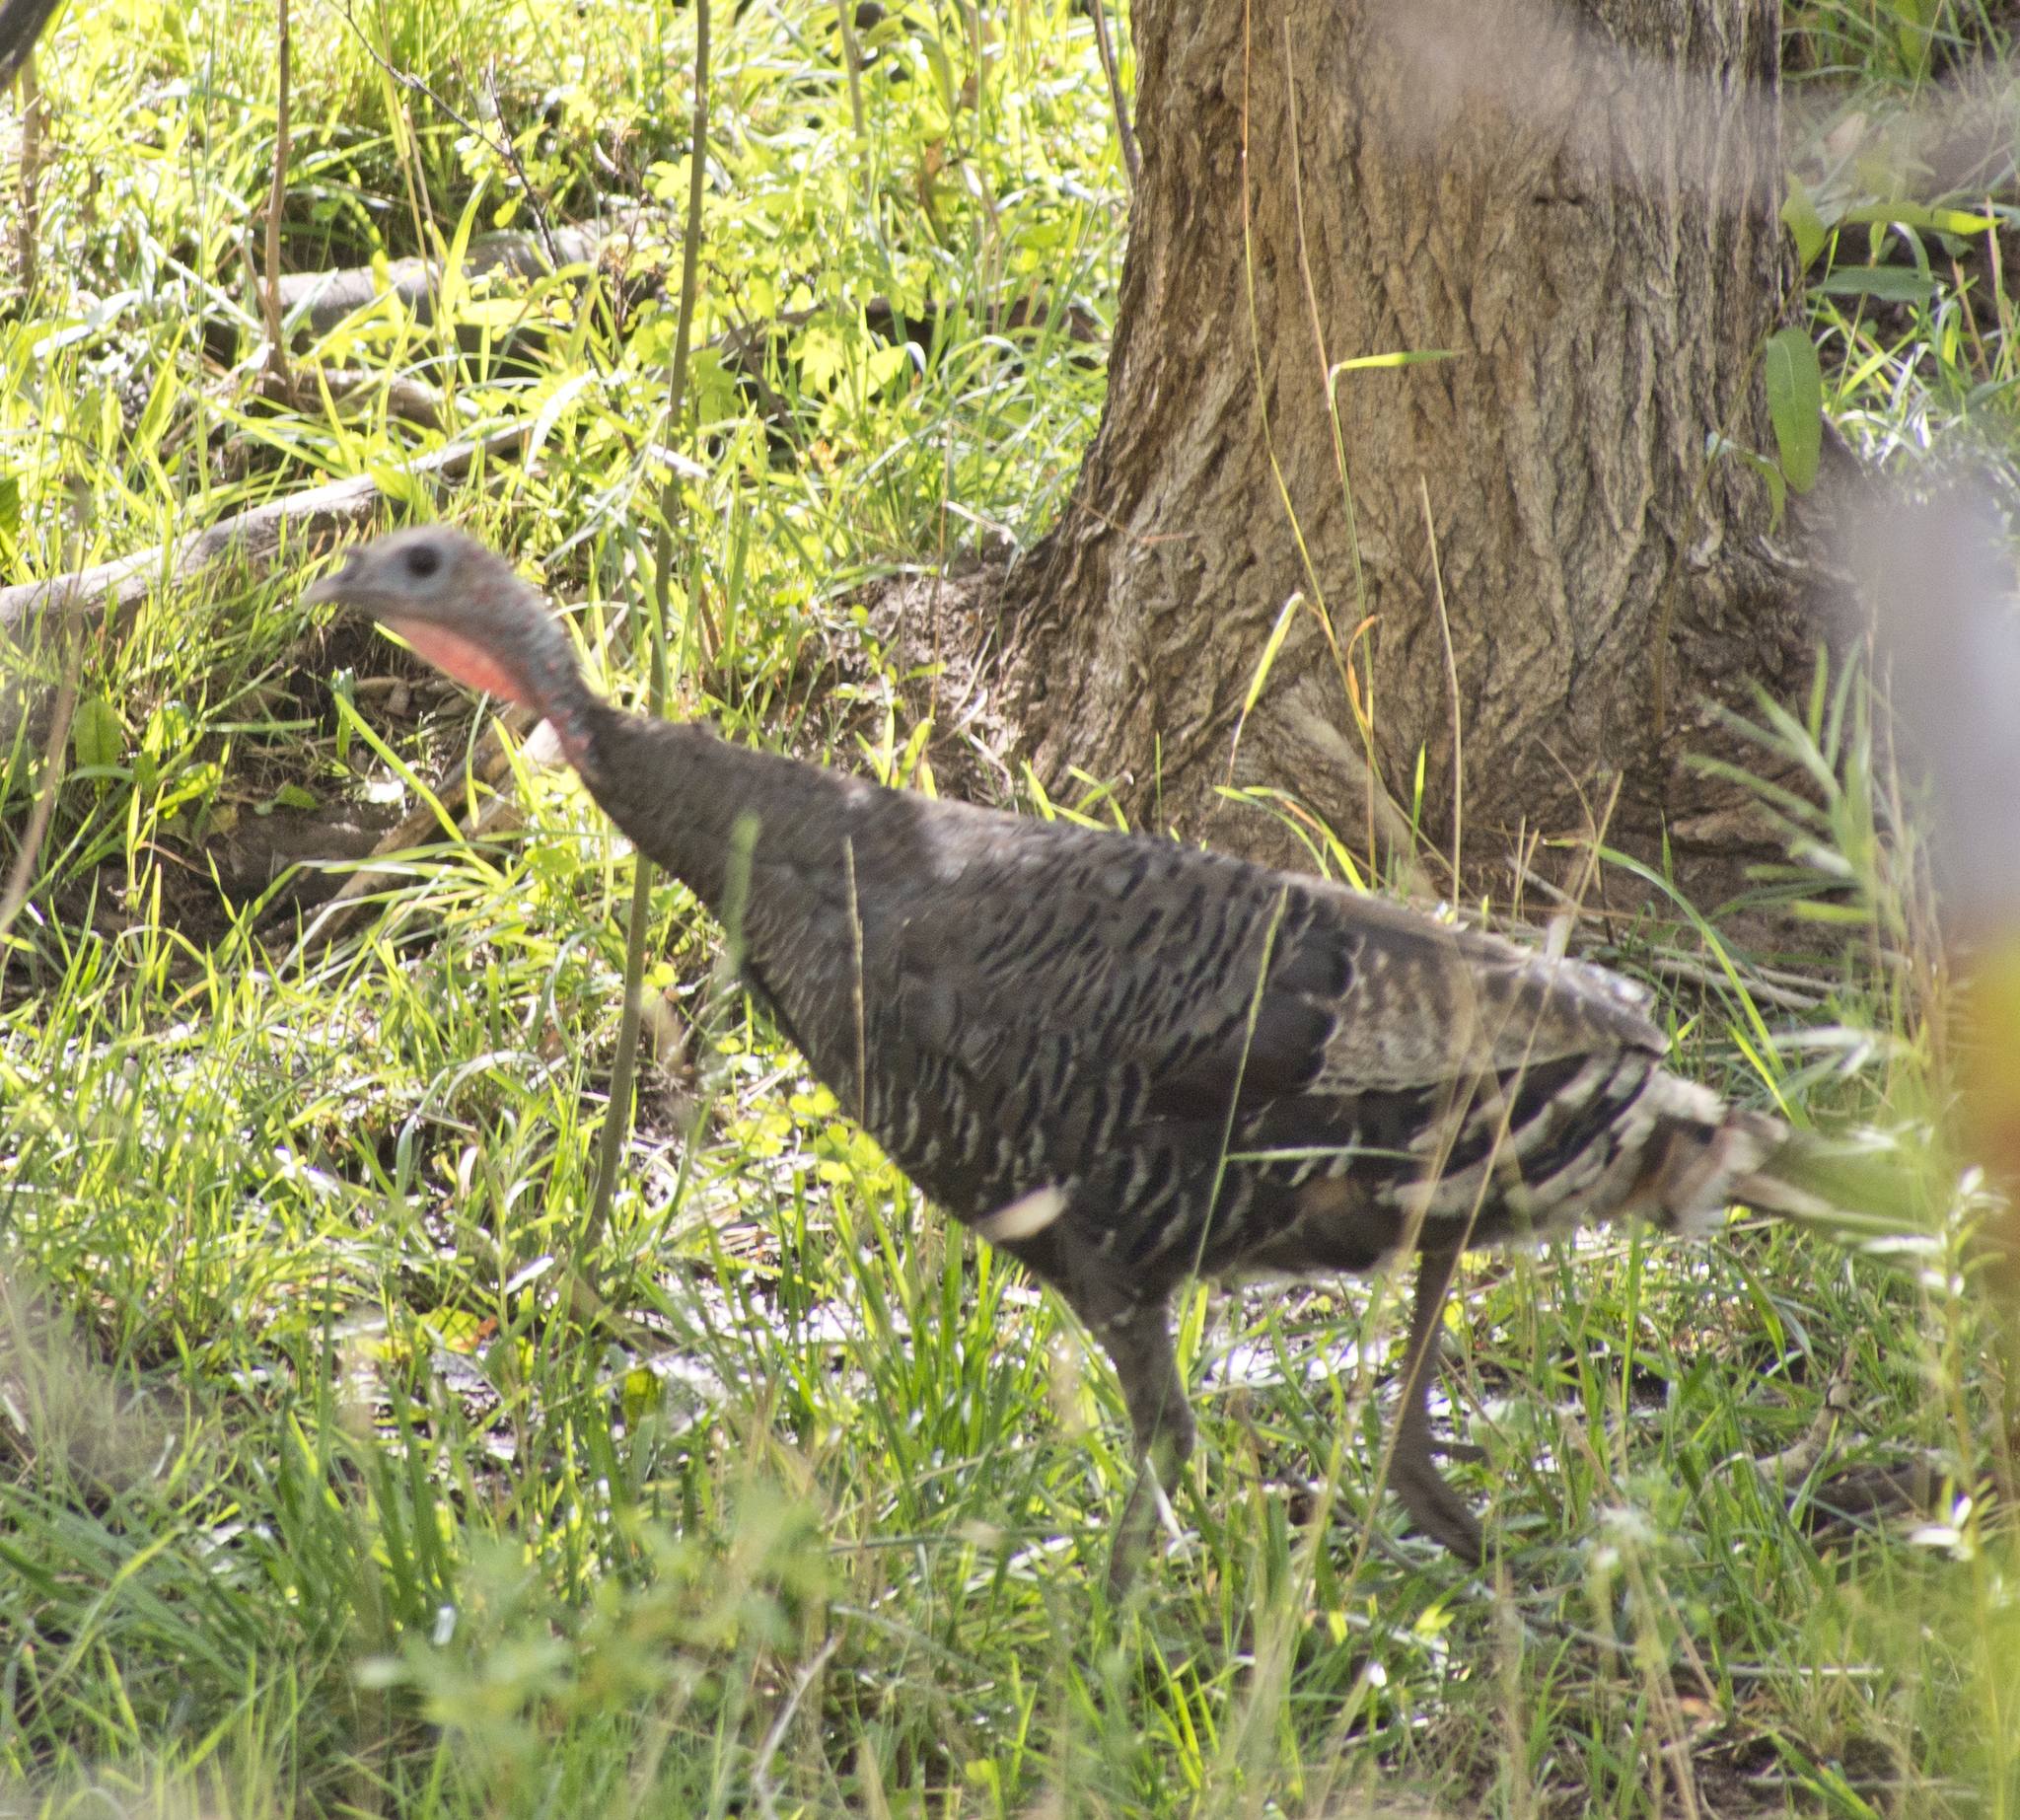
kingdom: Animalia
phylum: Chordata
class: Aves
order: Galliformes
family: Phasianidae
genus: Meleagris
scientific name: Meleagris gallopavo
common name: Wild turkey
